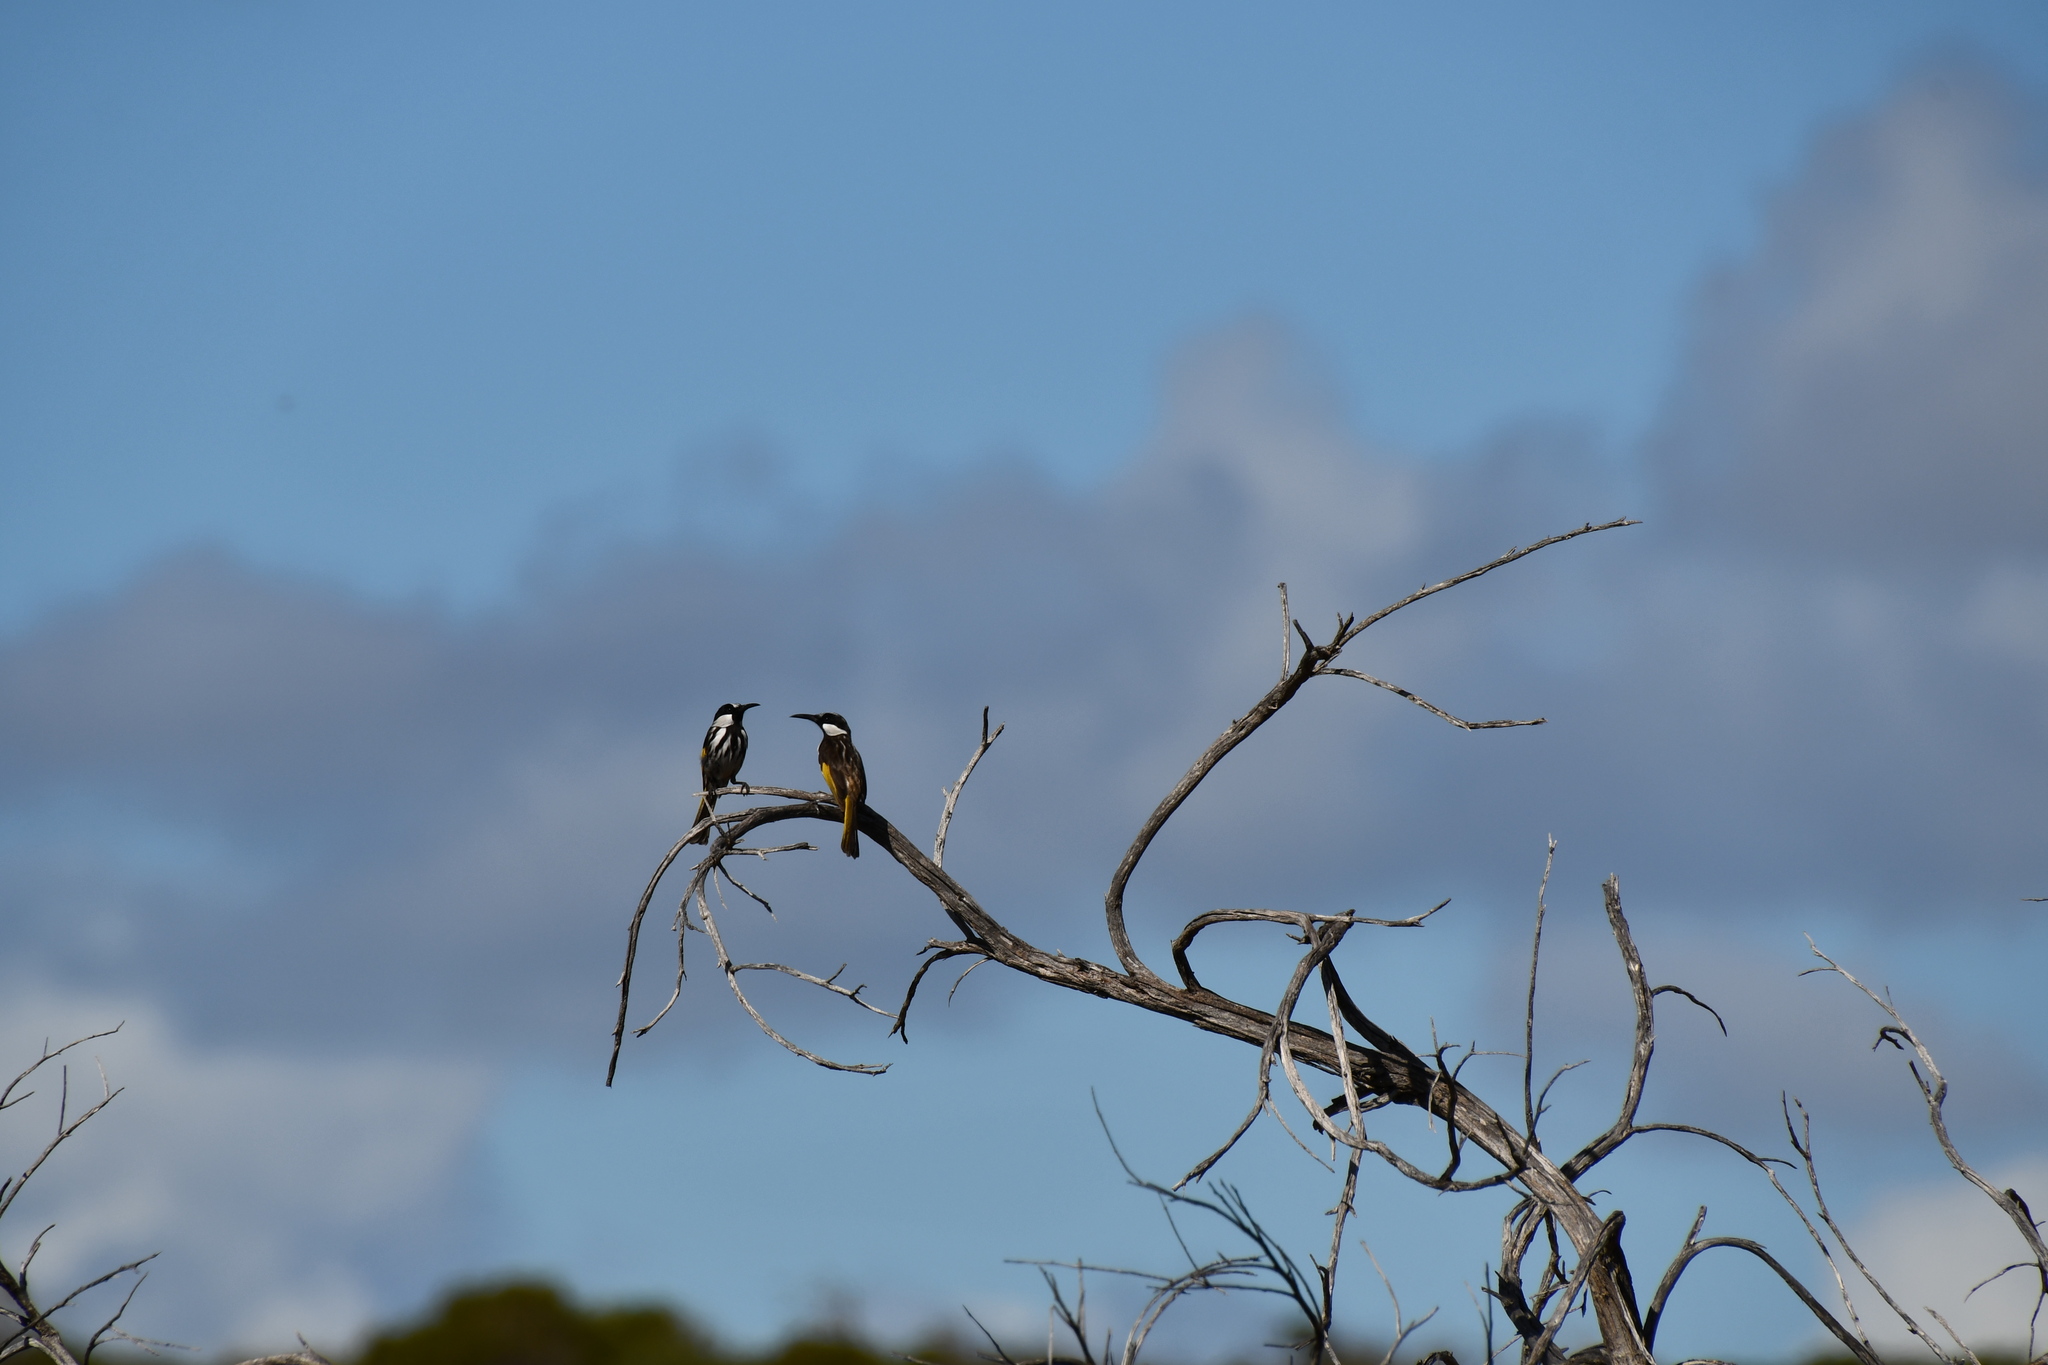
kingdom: Animalia
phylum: Chordata
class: Aves
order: Passeriformes
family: Meliphagidae
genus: Phylidonyris
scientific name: Phylidonyris niger
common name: White-cheeked honeyeater
